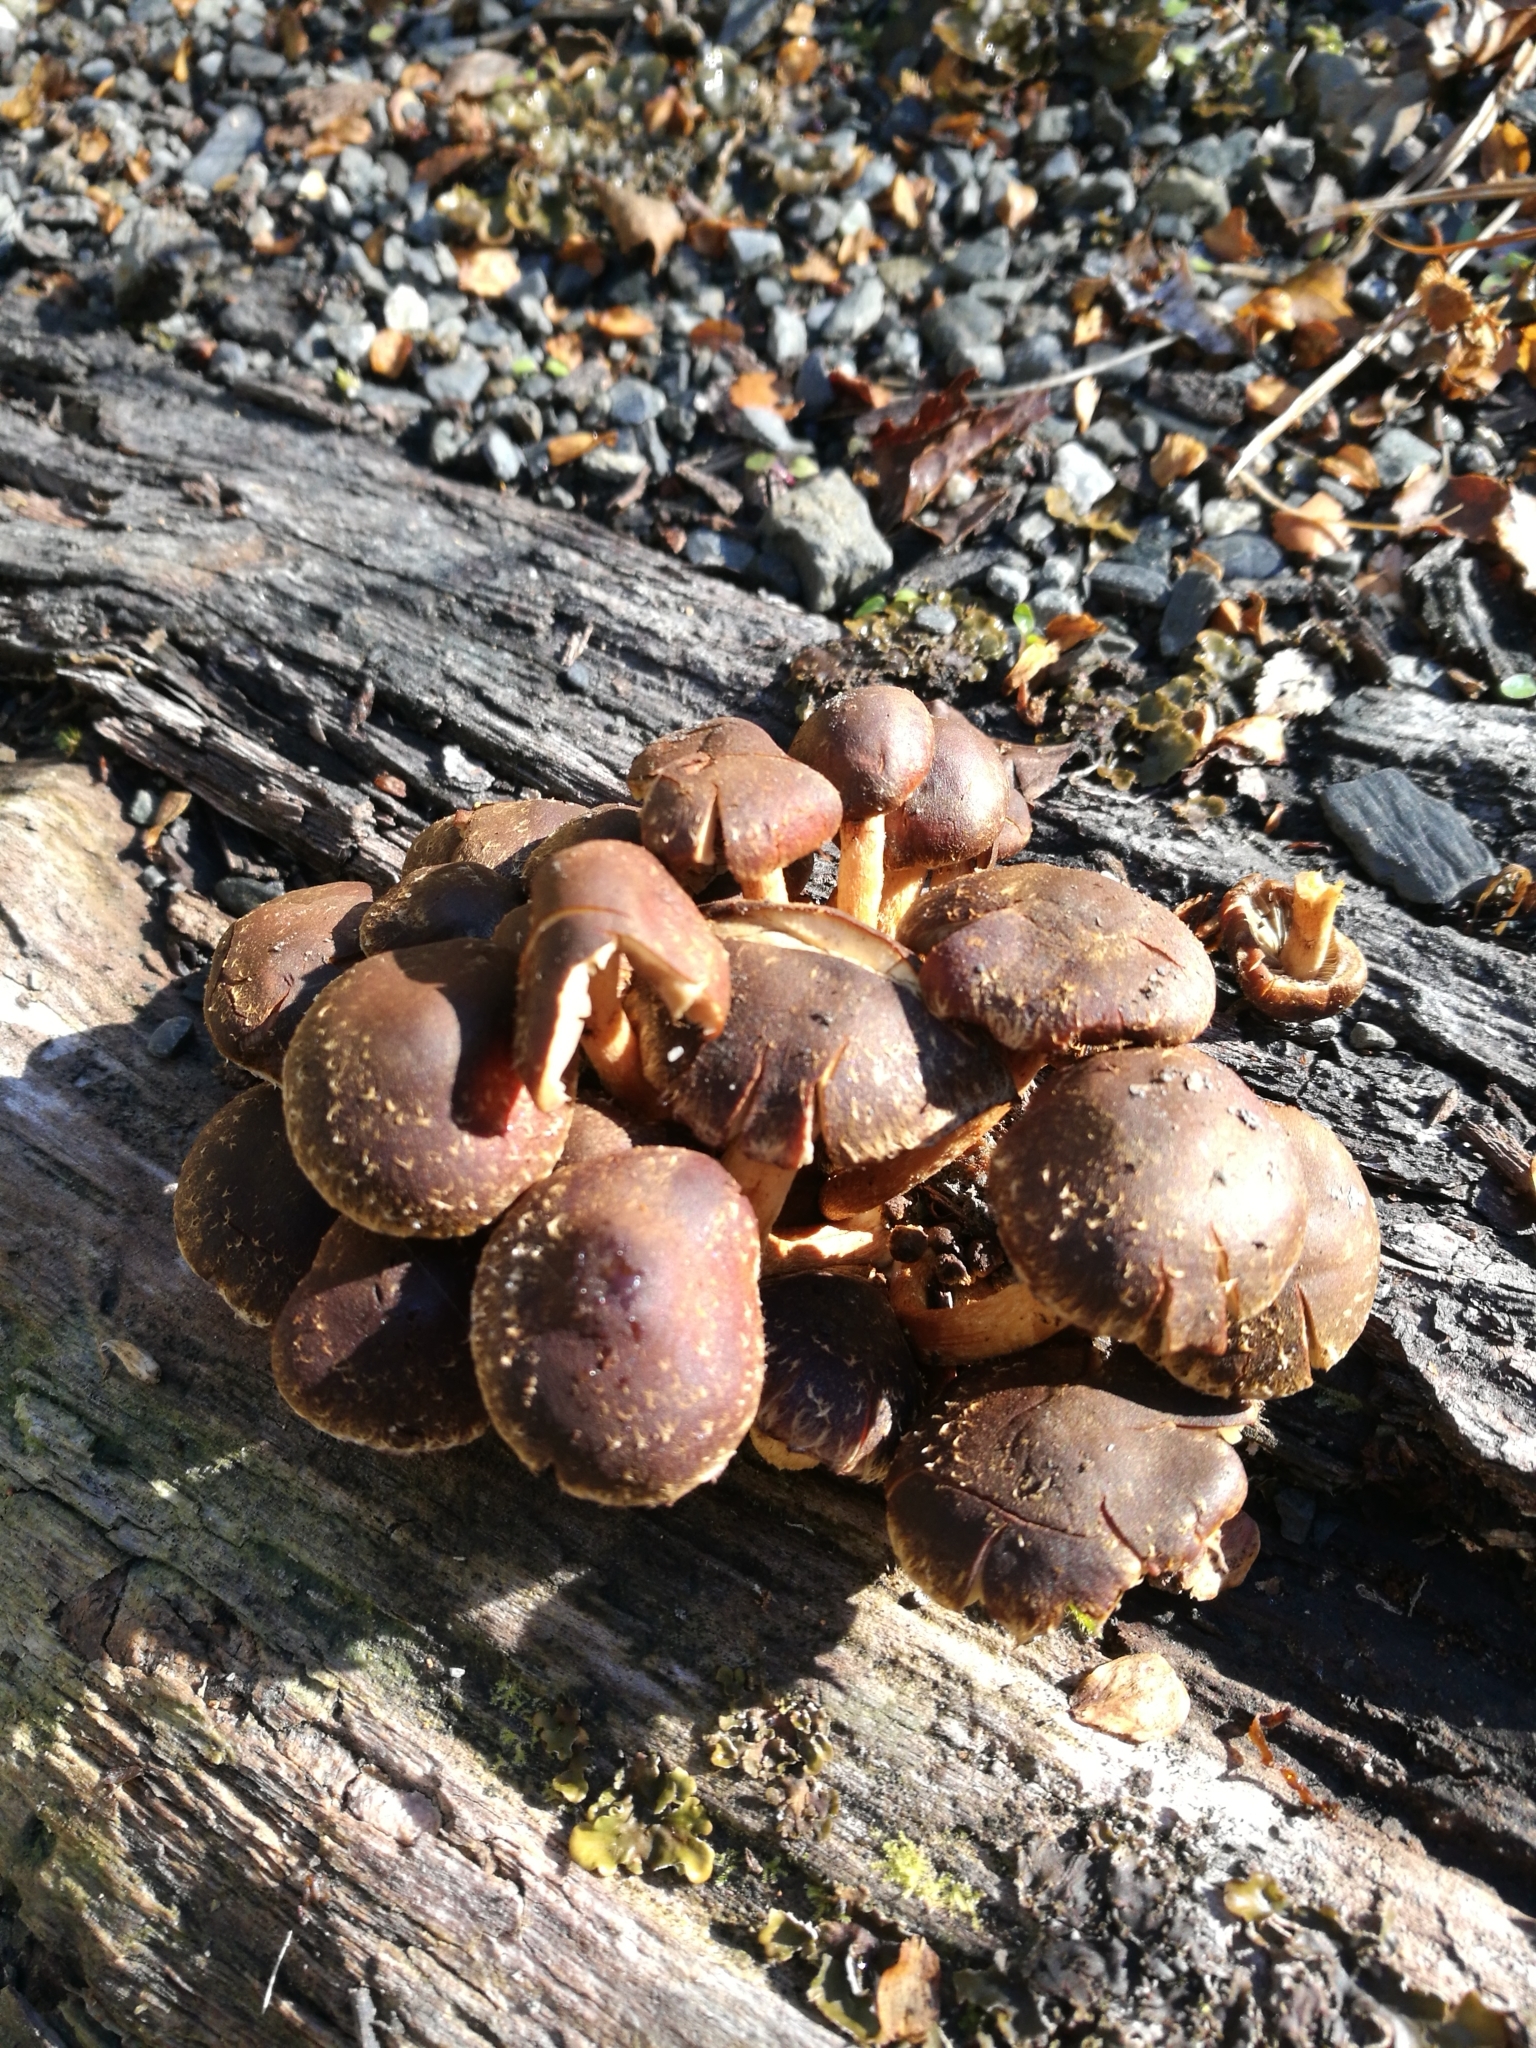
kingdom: Fungi
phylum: Basidiomycota
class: Agaricomycetes
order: Agaricales
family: Strophariaceae
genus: Hypholoma
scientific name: Hypholoma brunneum
